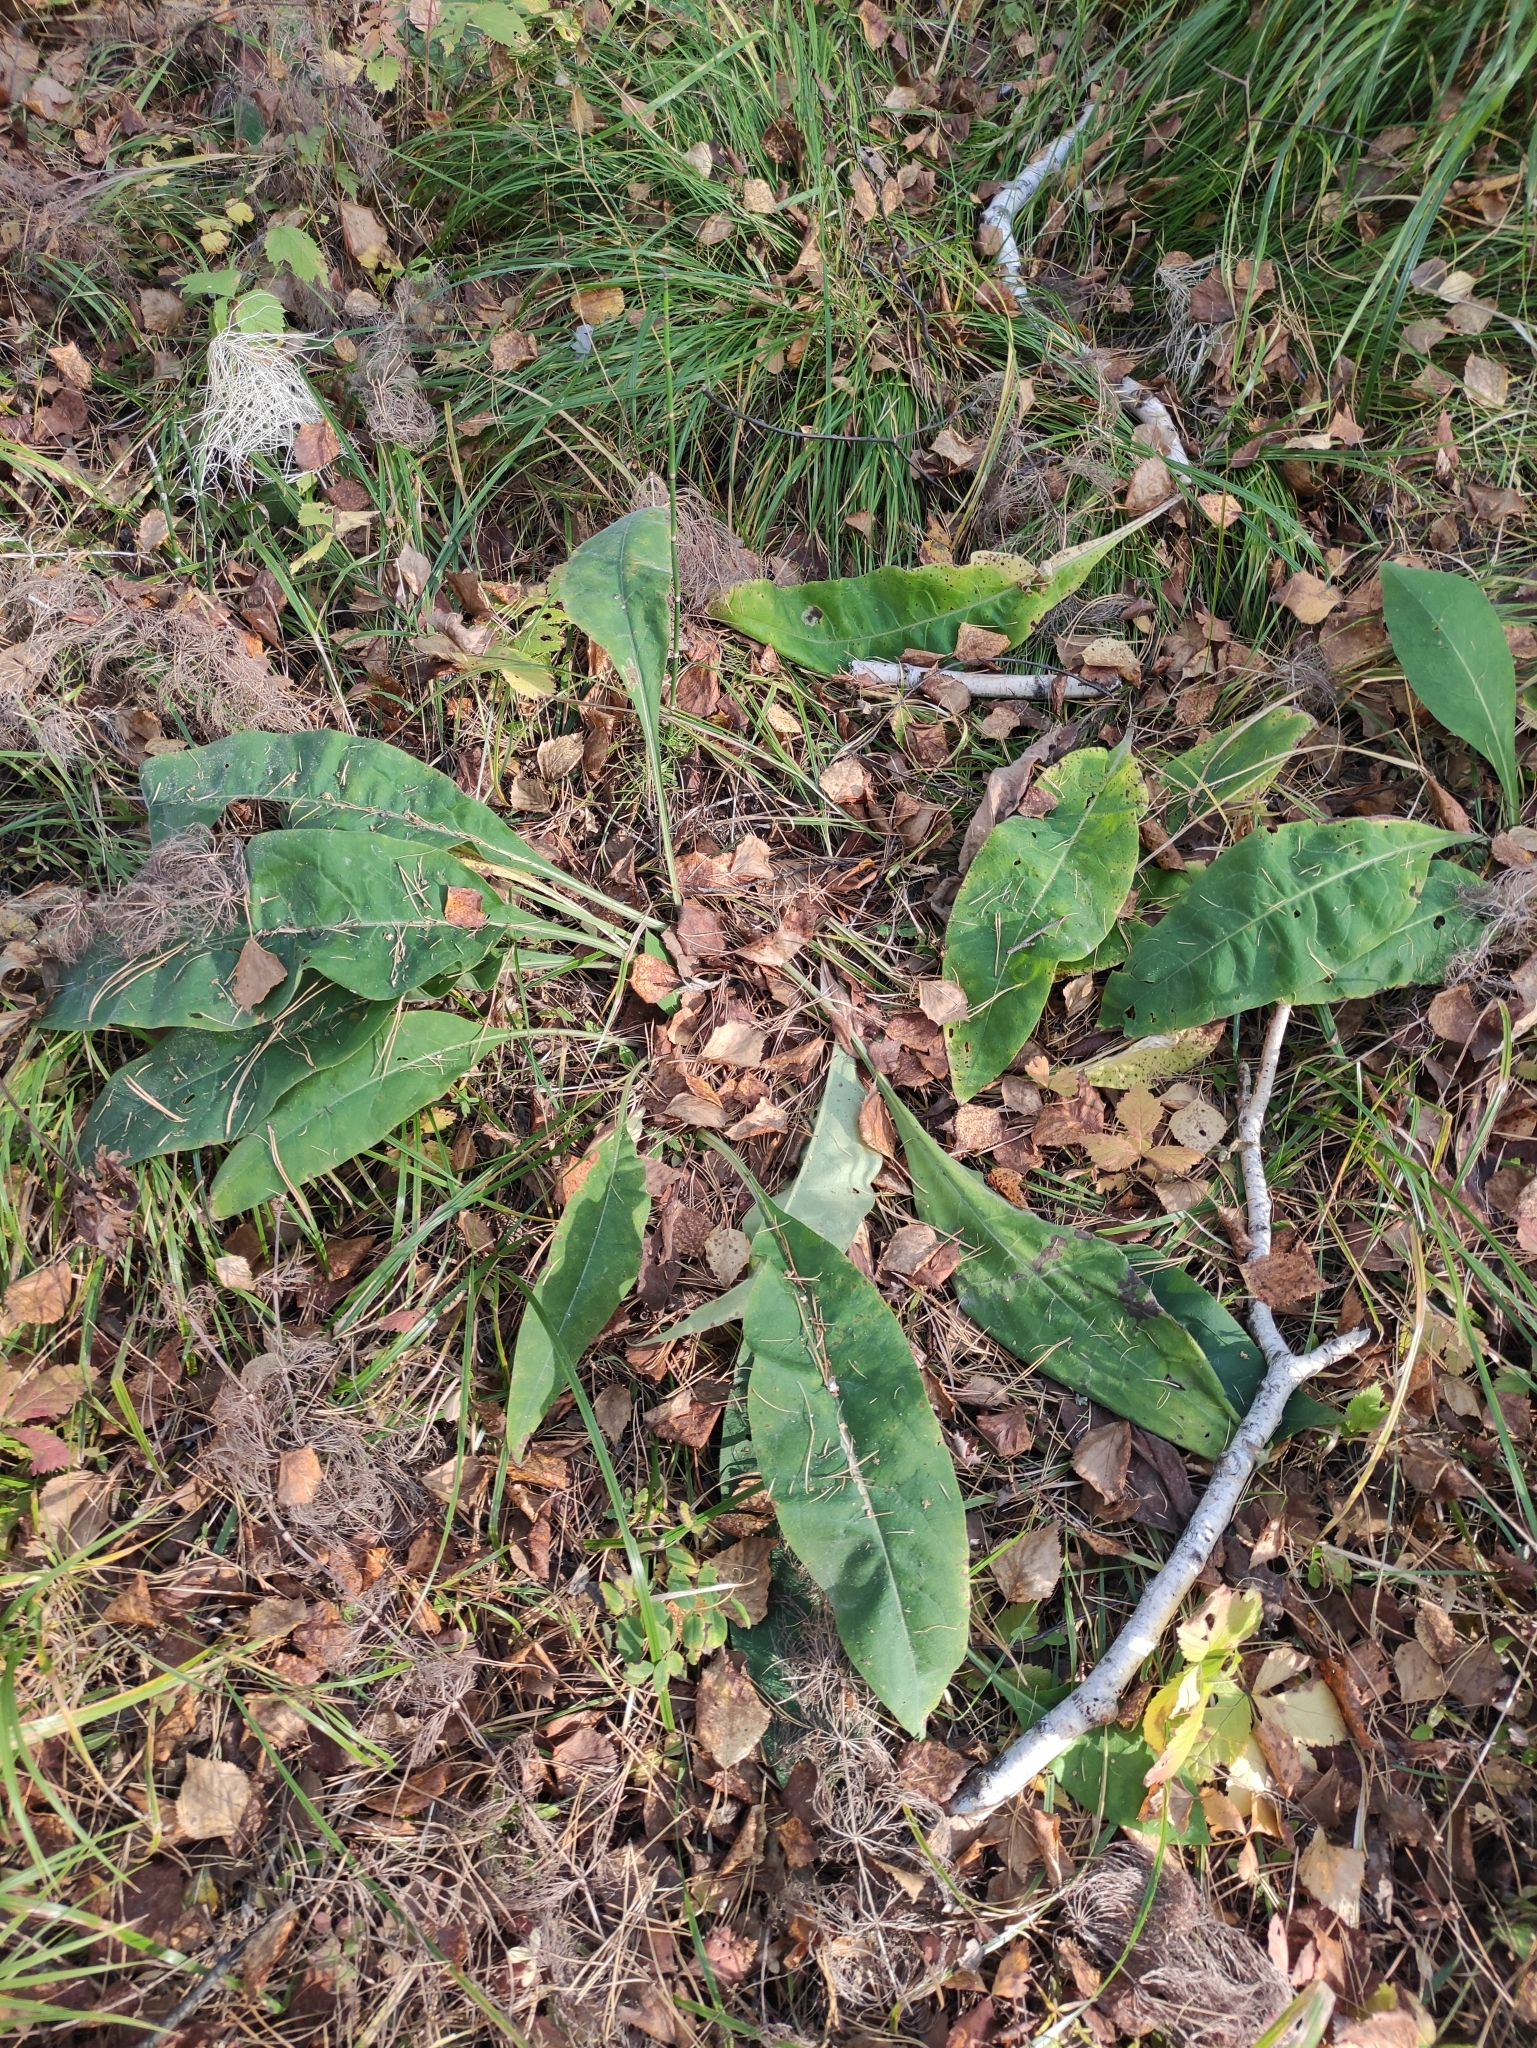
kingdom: Plantae
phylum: Tracheophyta
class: Magnoliopsida
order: Boraginales
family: Boraginaceae
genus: Pulmonaria
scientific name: Pulmonaria mollis
